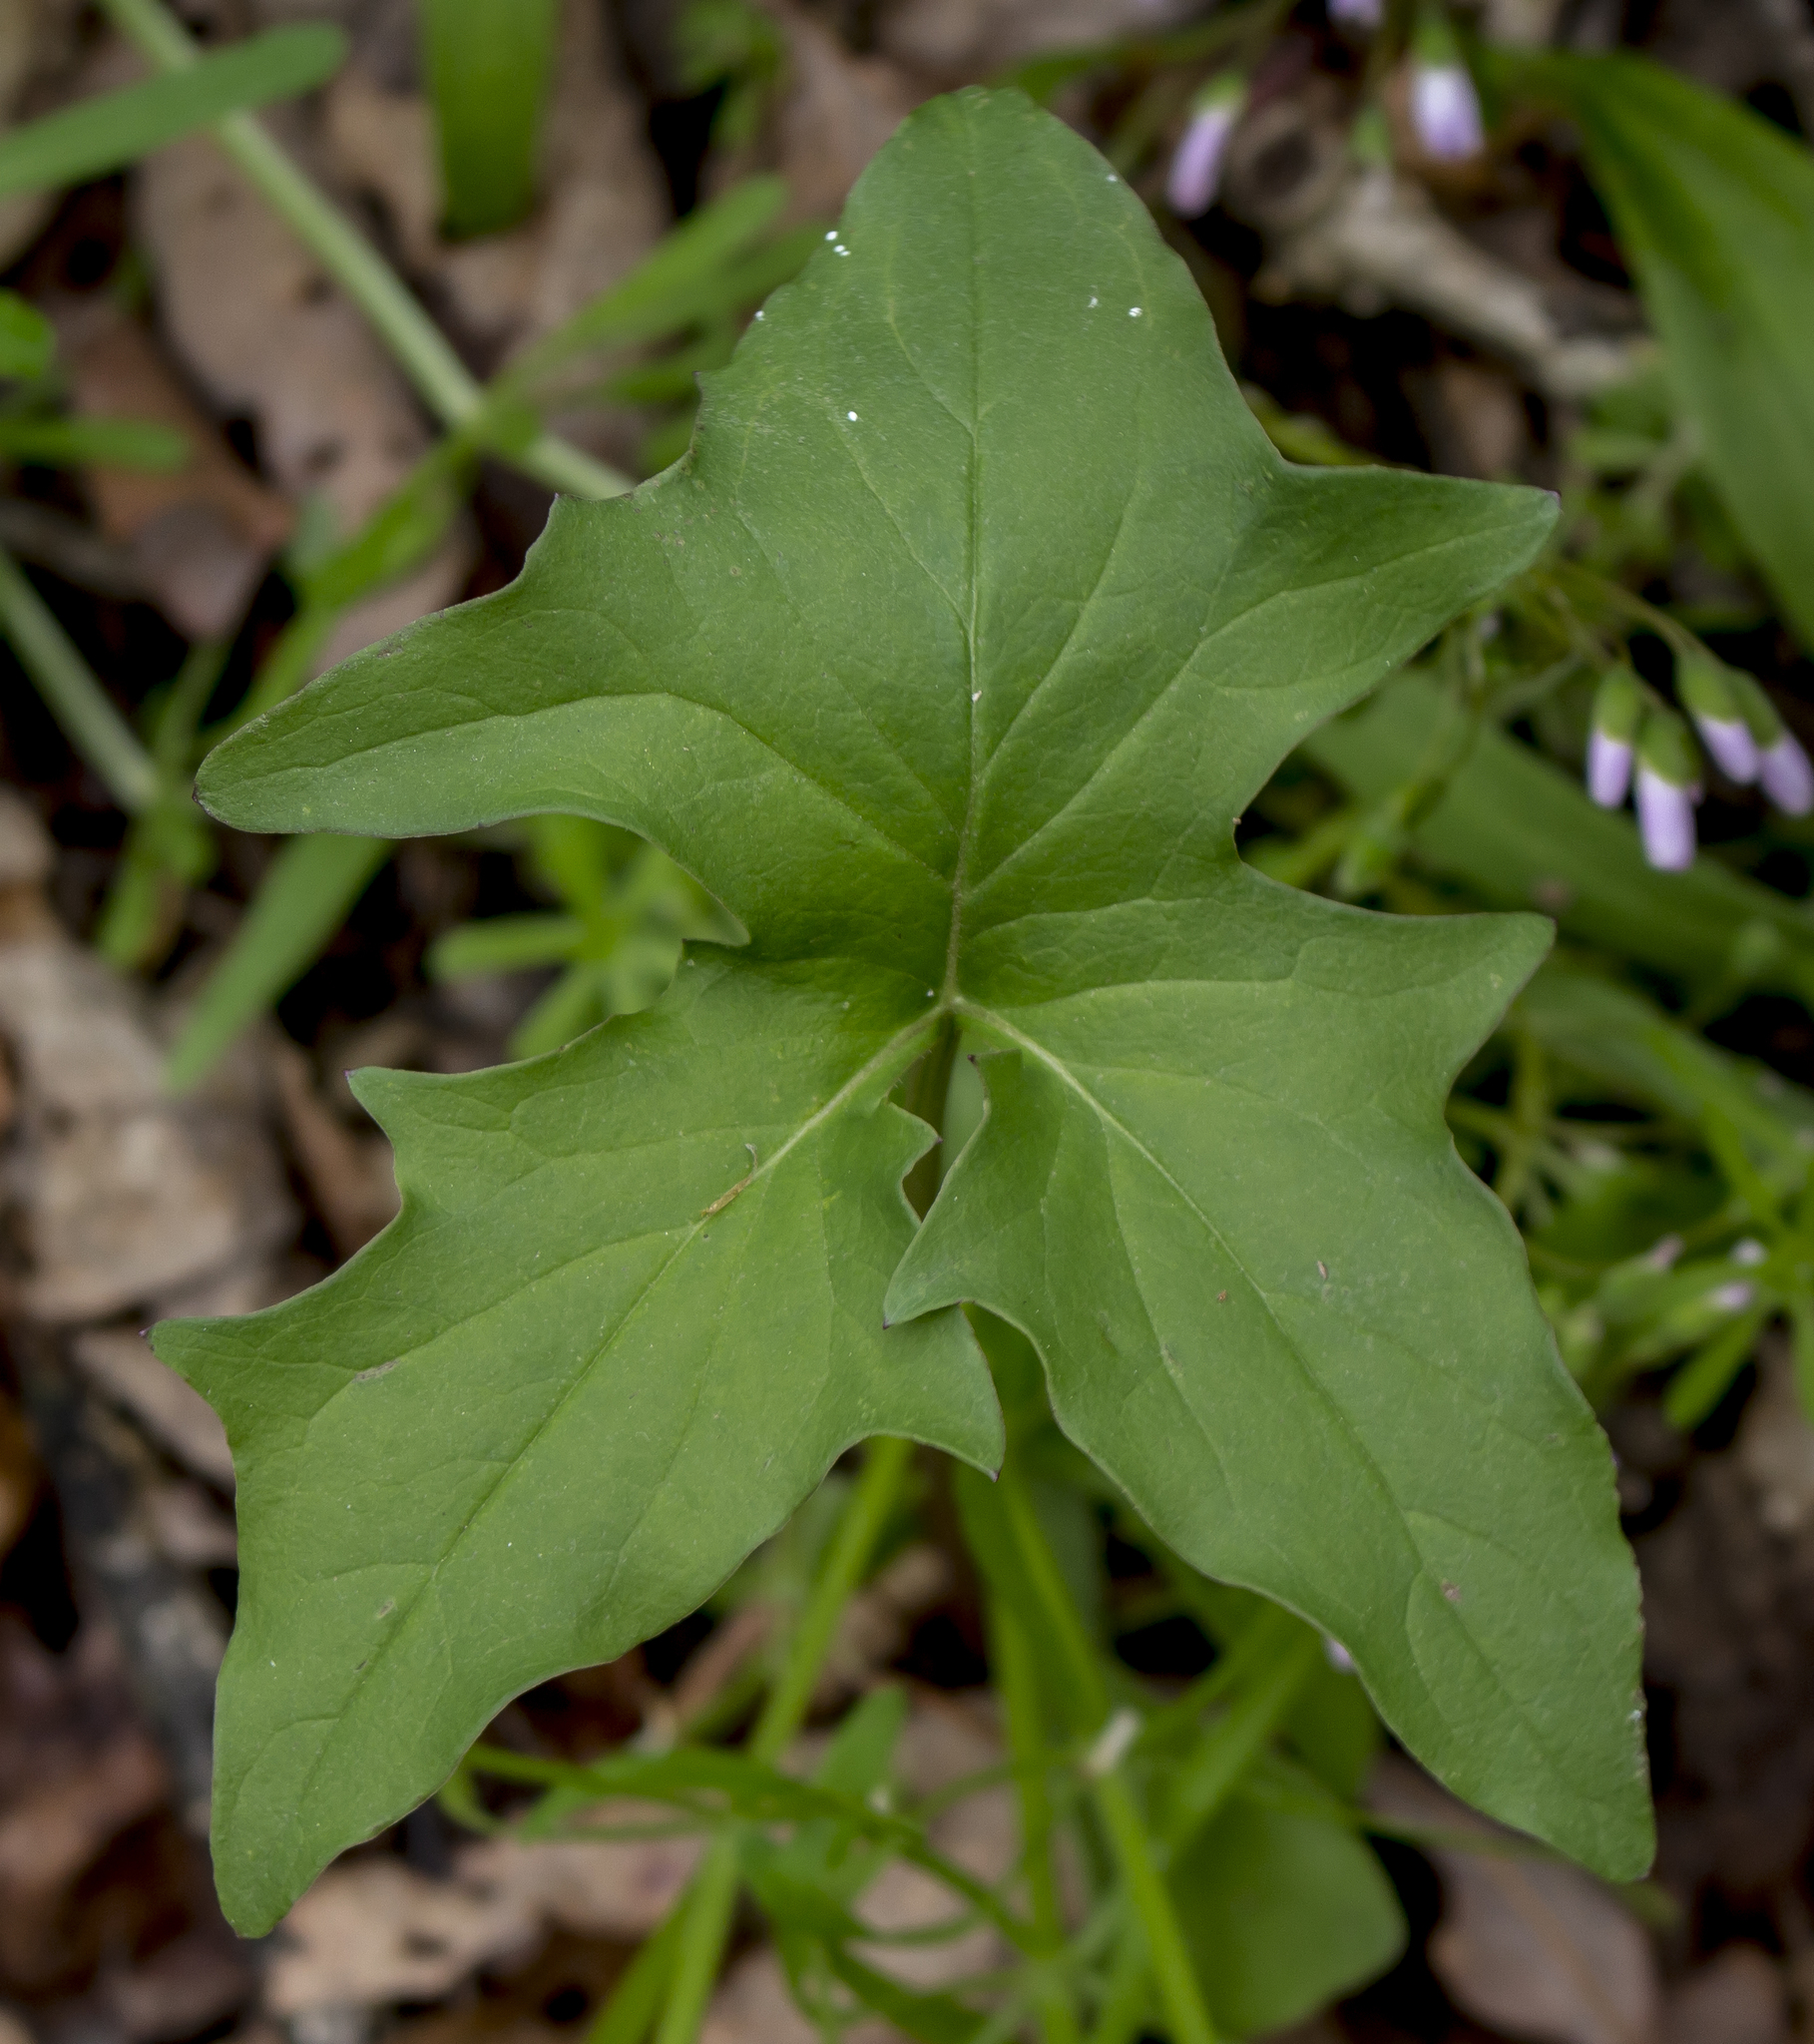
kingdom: Plantae
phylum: Tracheophyta
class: Magnoliopsida
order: Asterales
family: Asteraceae
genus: Nabalus
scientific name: Nabalus albus
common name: White rattlesnakeroot
